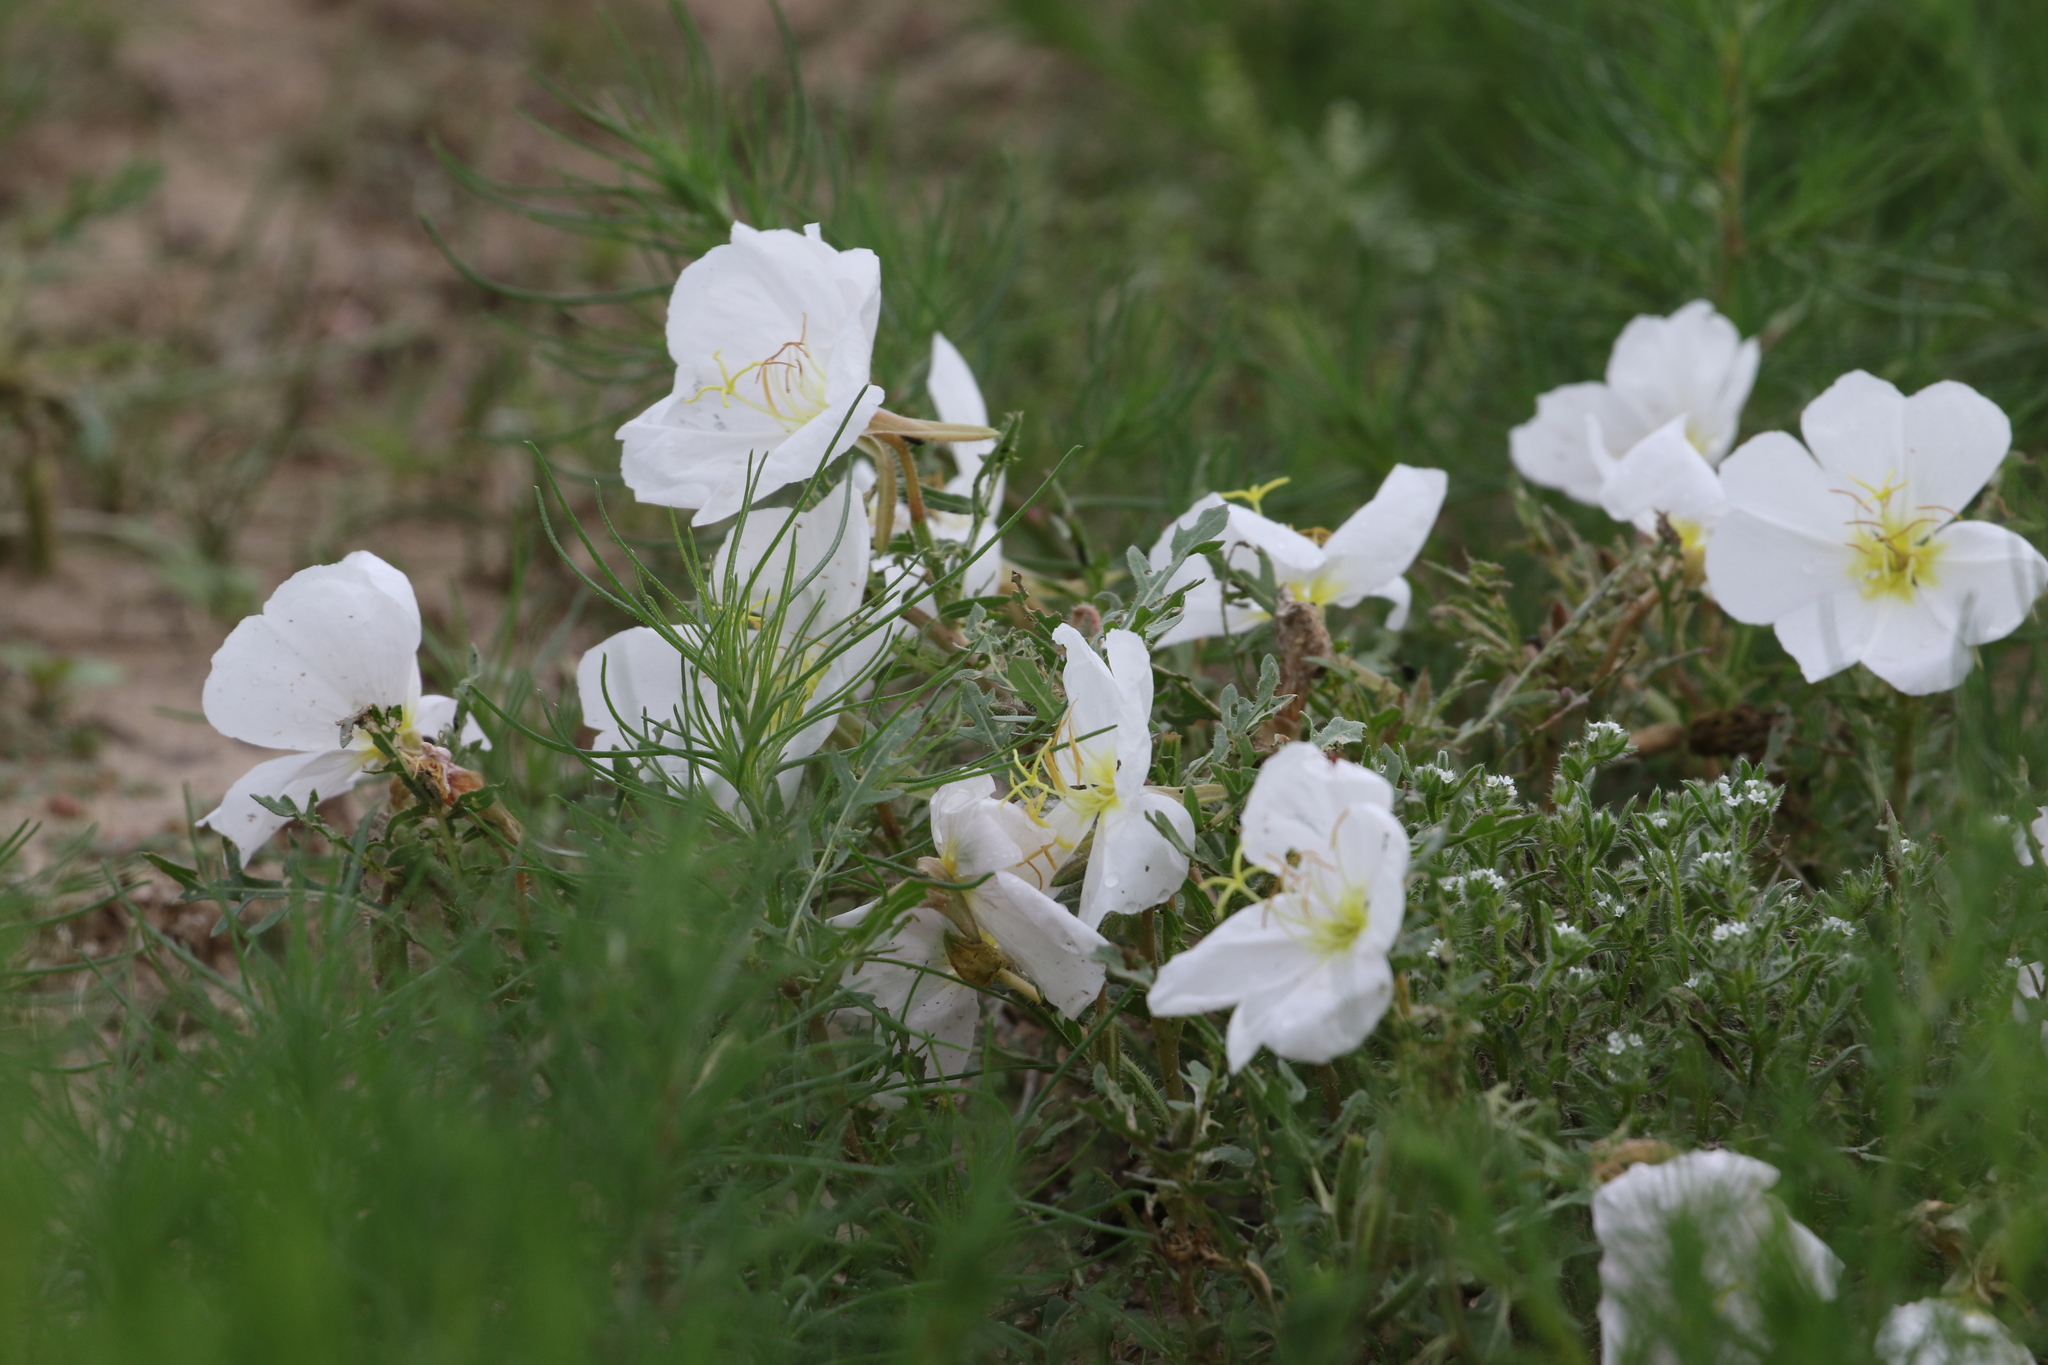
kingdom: Plantae
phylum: Tracheophyta
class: Magnoliopsida
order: Myrtales
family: Onagraceae
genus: Oenothera
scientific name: Oenothera albicaulis
